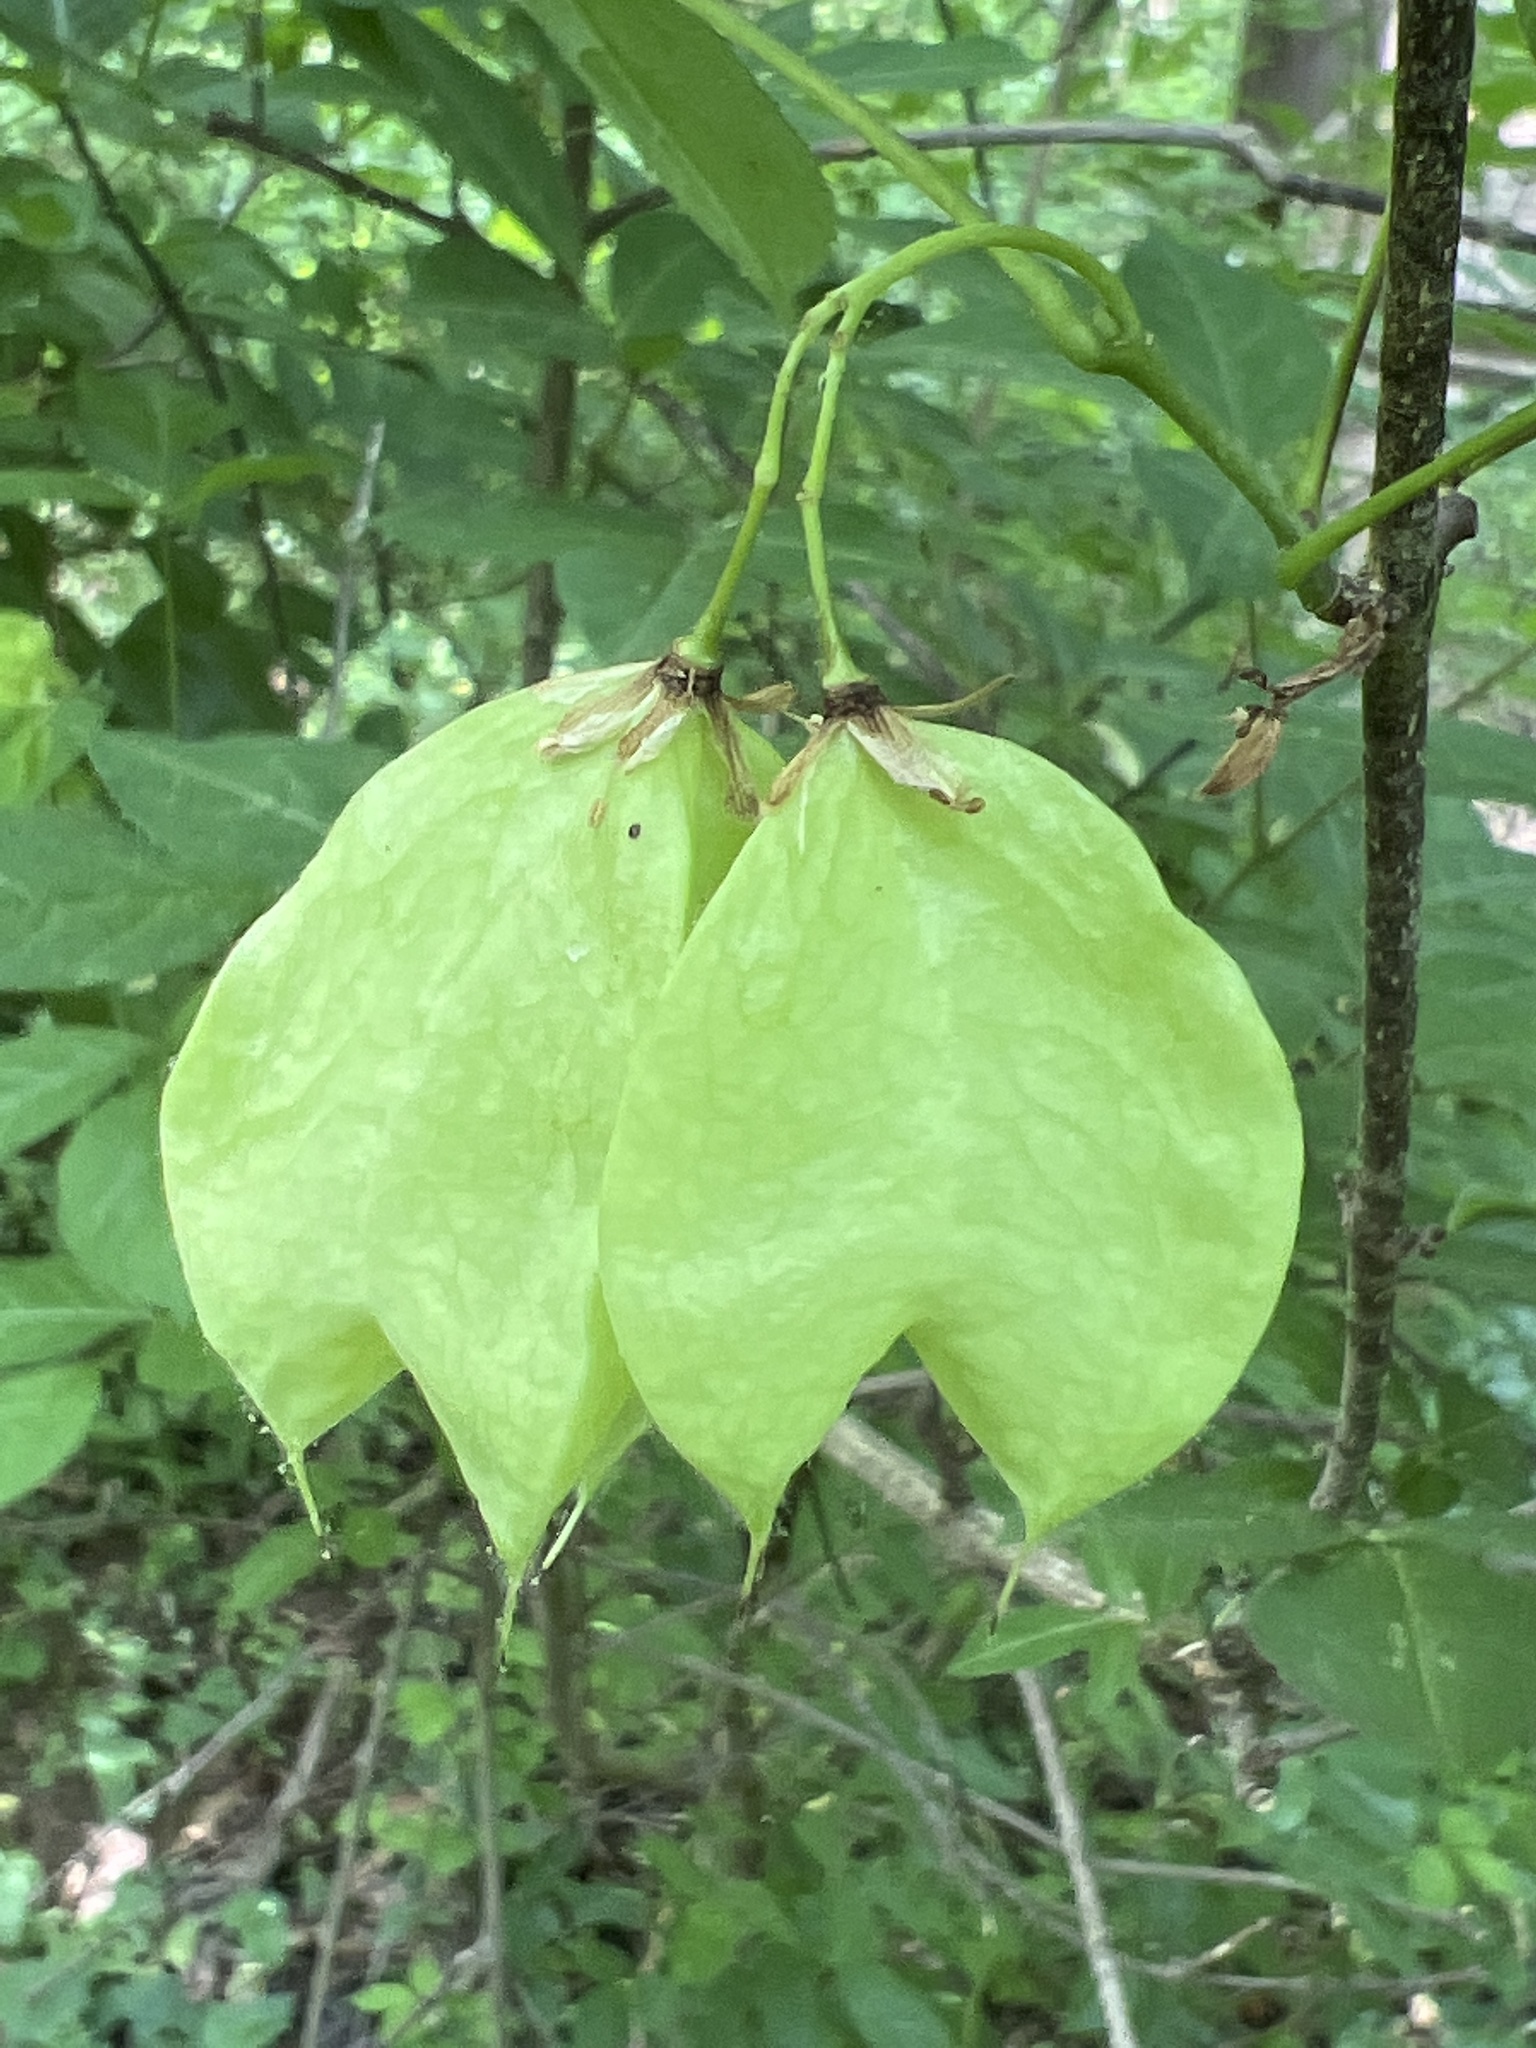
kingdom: Plantae
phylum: Tracheophyta
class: Magnoliopsida
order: Crossosomatales
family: Staphyleaceae
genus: Staphylea
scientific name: Staphylea trifolia
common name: American bladdernut
